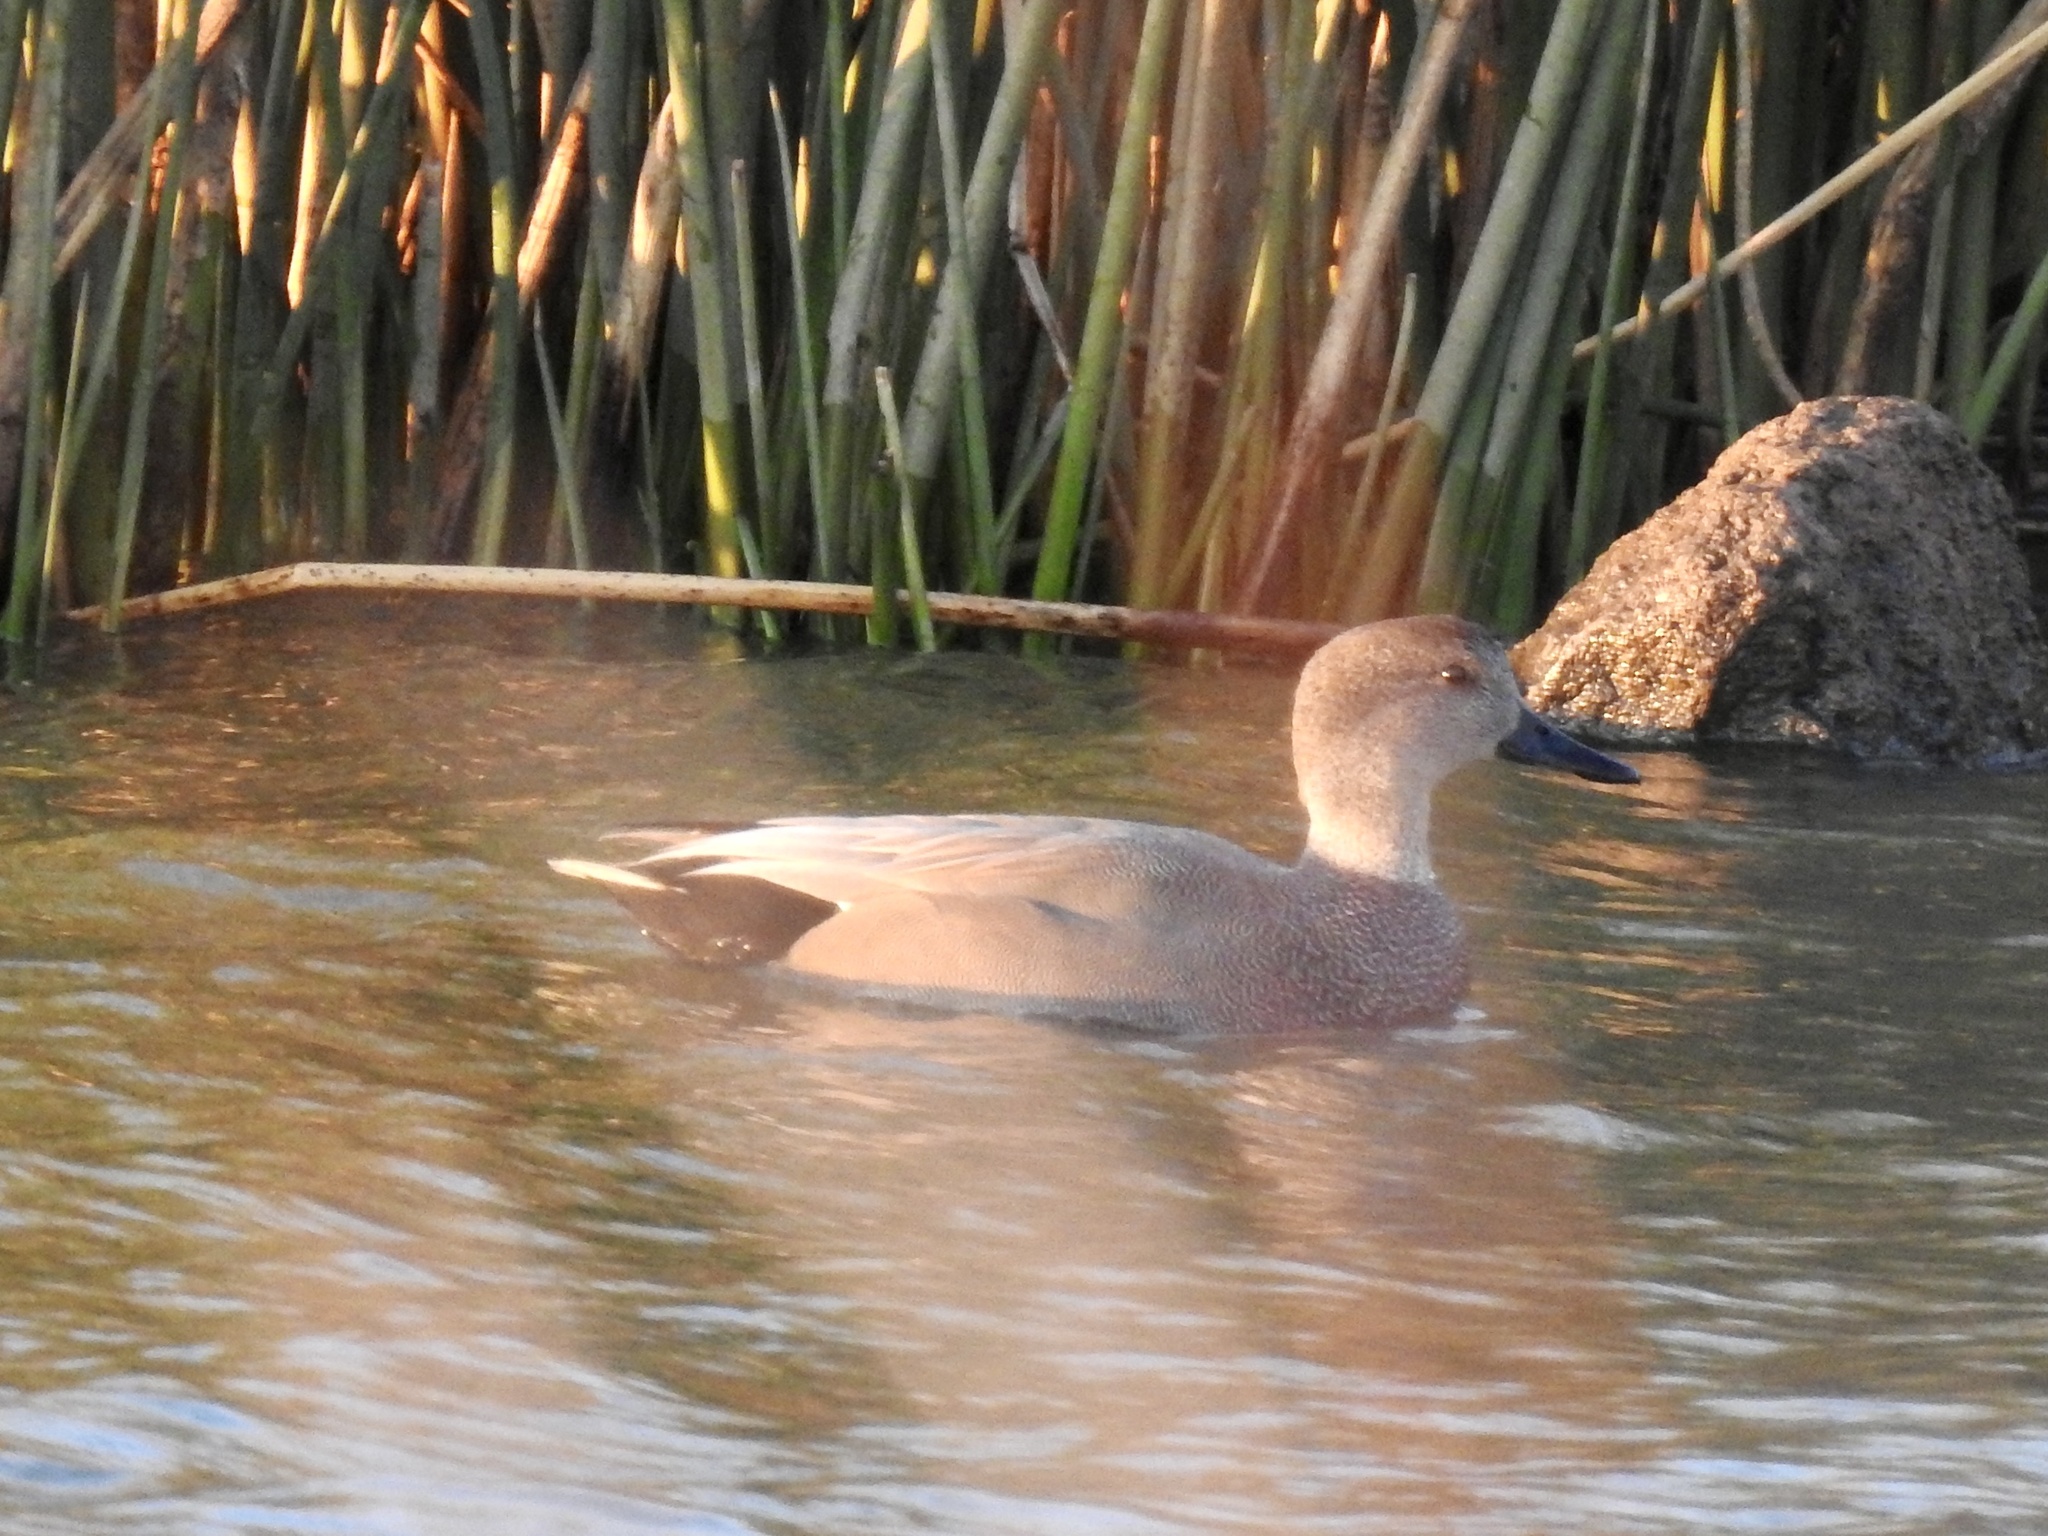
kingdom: Animalia
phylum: Chordata
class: Aves
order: Anseriformes
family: Anatidae
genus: Mareca
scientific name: Mareca strepera
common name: Gadwall
